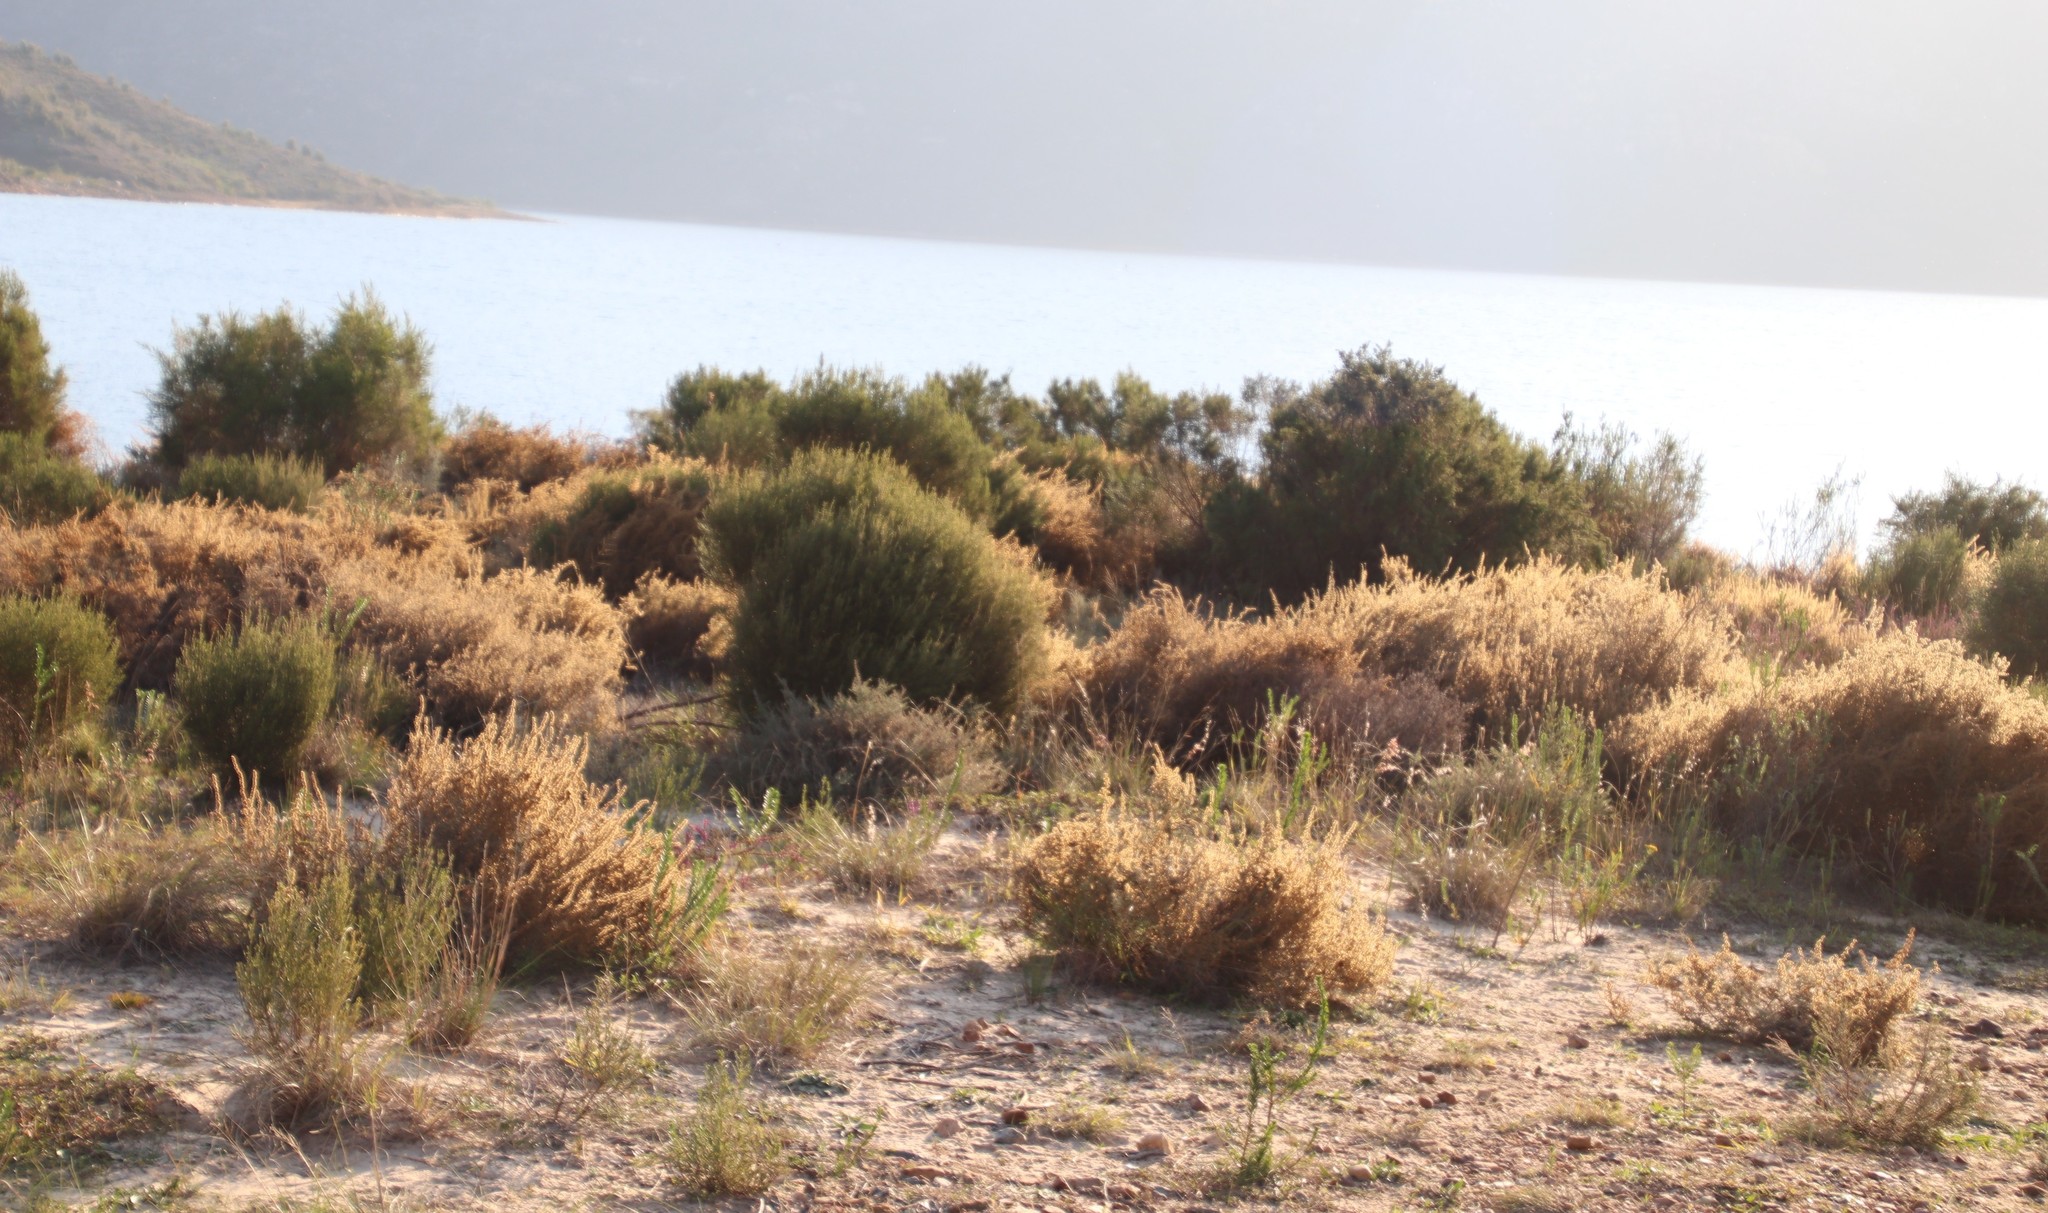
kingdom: Plantae
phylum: Tracheophyta
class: Magnoliopsida
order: Asterales
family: Asteraceae
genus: Seriphium
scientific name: Seriphium plumosum
